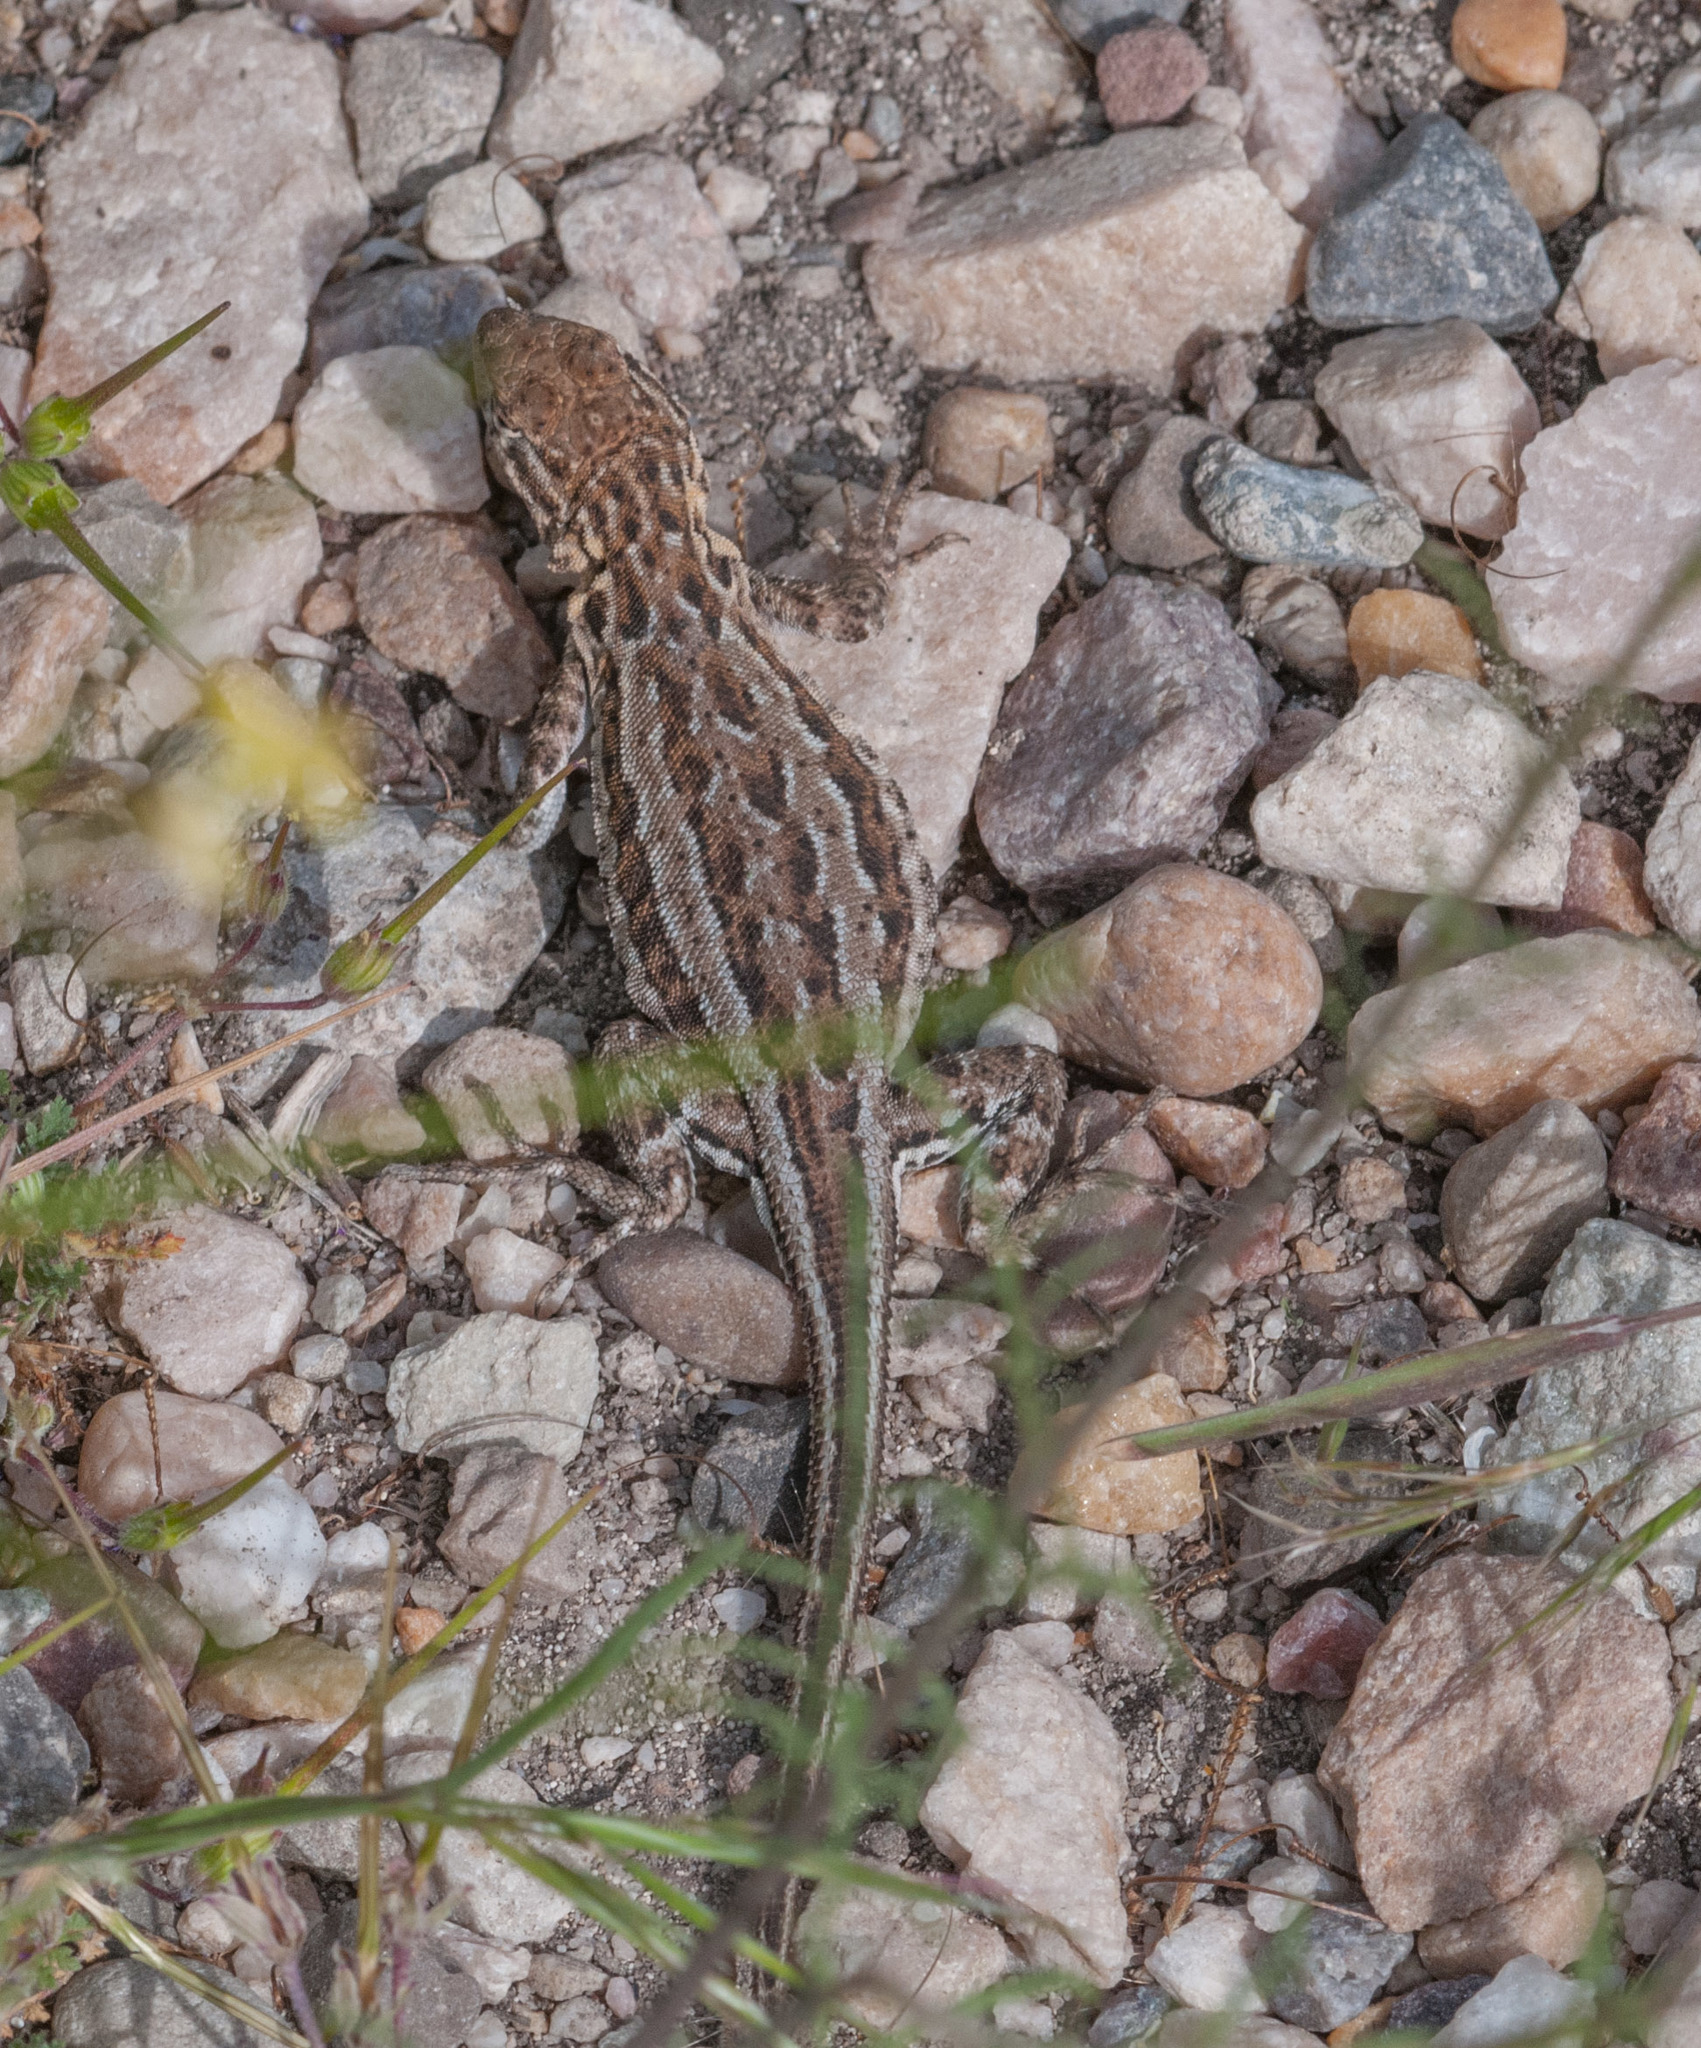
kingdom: Animalia
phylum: Chordata
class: Squamata
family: Phrynosomatidae
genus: Uta
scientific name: Uta stansburiana
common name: Side-blotched lizard
